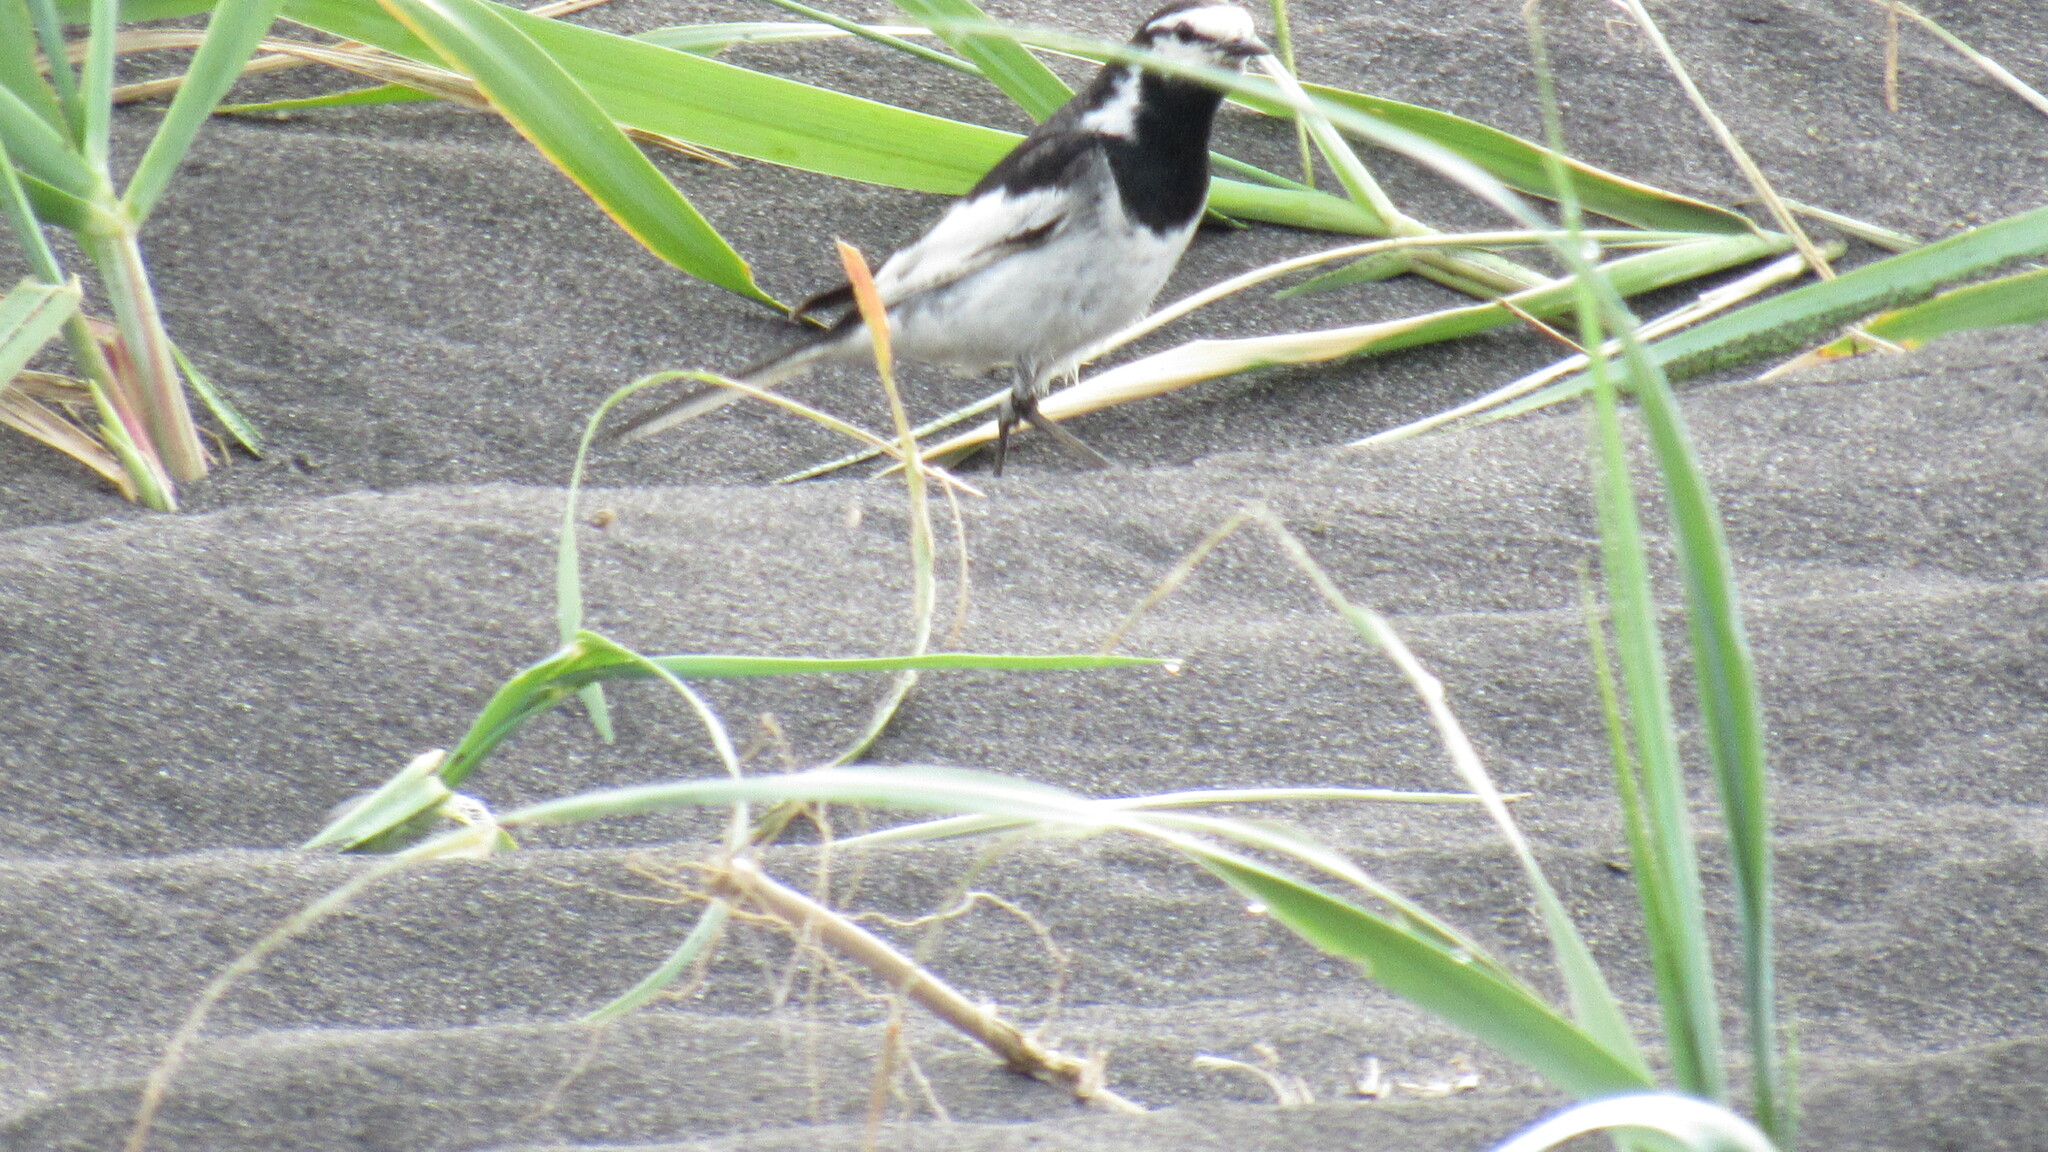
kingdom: Animalia
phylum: Chordata
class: Aves
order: Passeriformes
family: Motacillidae
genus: Motacilla
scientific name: Motacilla alba
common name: White wagtail
